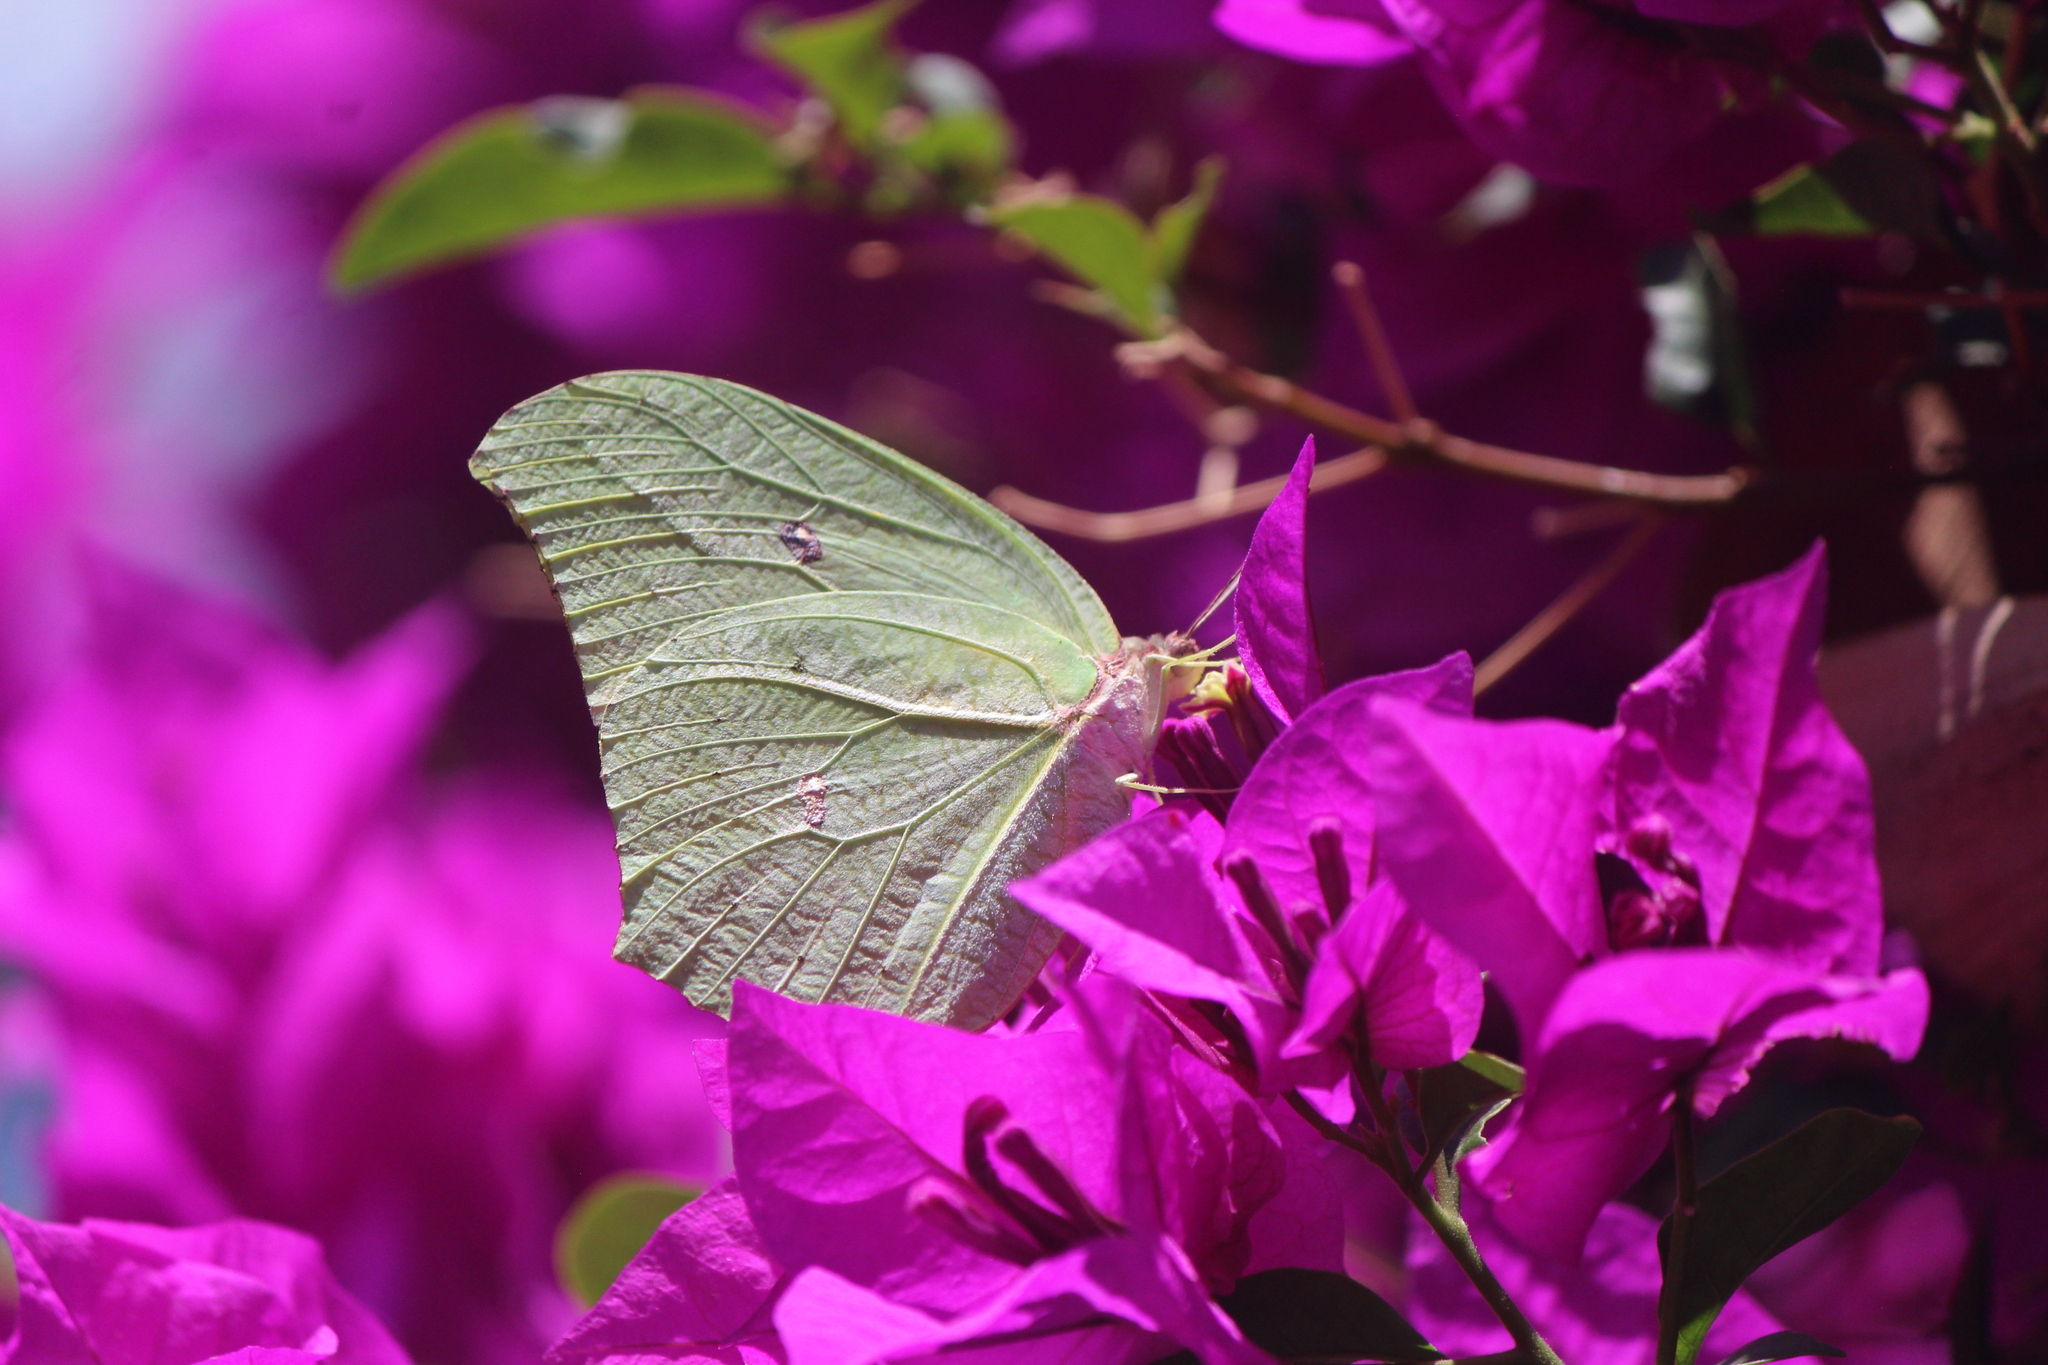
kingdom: Animalia
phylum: Arthropoda
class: Insecta
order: Lepidoptera
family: Pieridae
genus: Anteos
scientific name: Anteos maerula
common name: Angled sulphur
